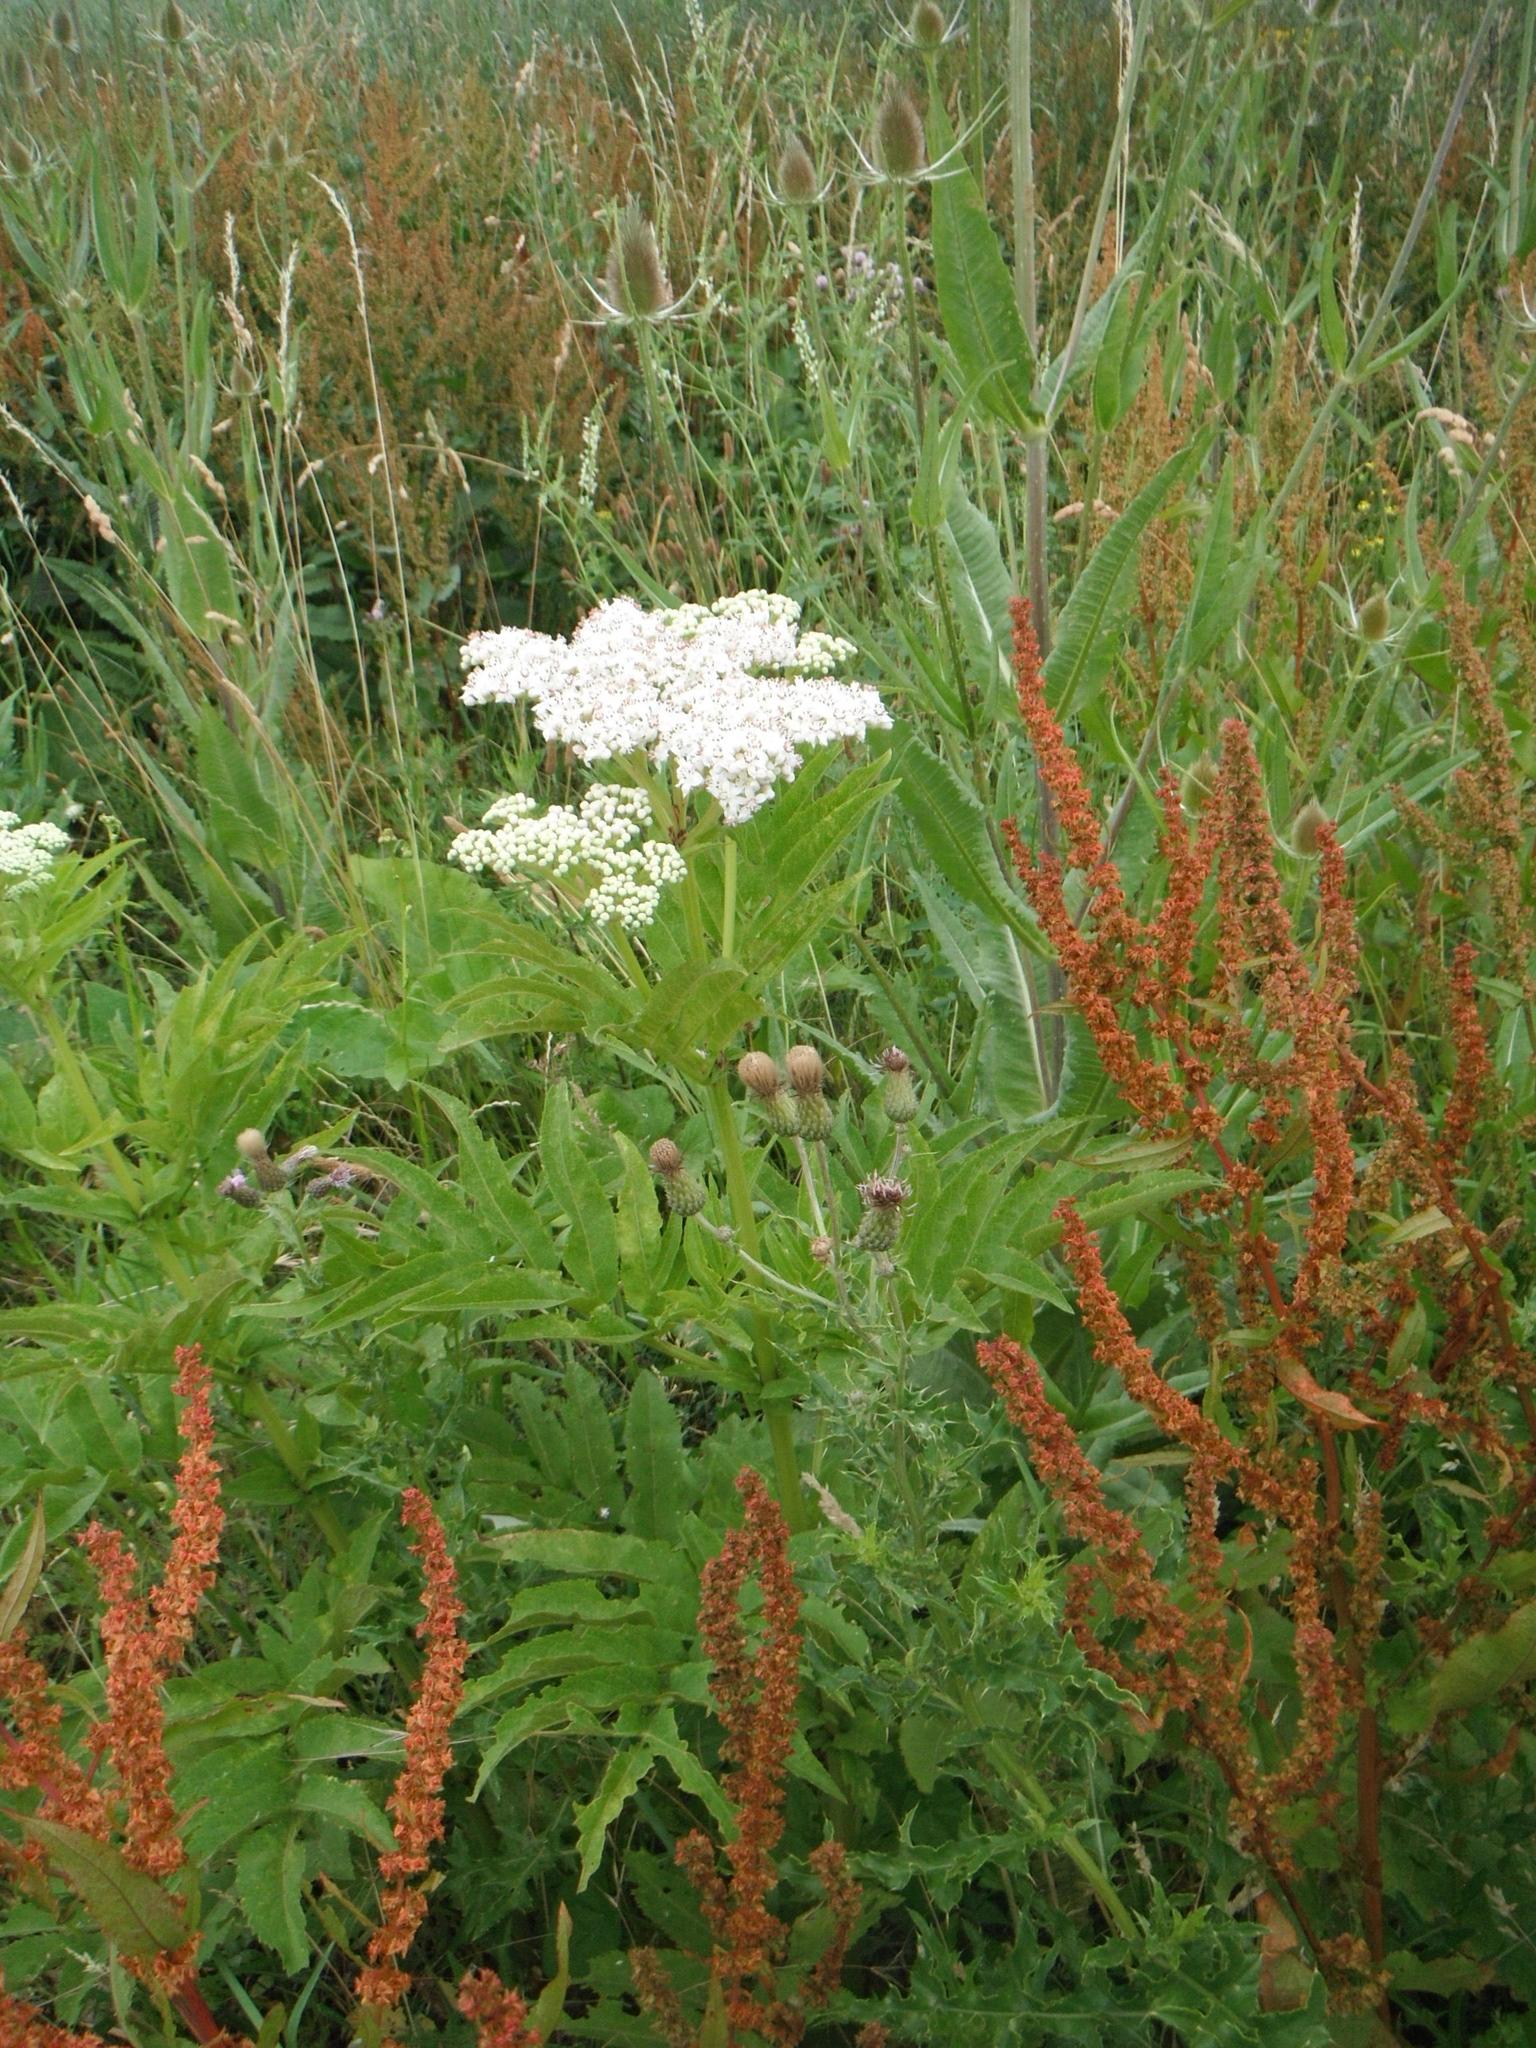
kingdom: Plantae
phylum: Tracheophyta
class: Magnoliopsida
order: Dipsacales
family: Viburnaceae
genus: Sambucus
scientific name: Sambucus ebulus
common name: Dwarf elder
